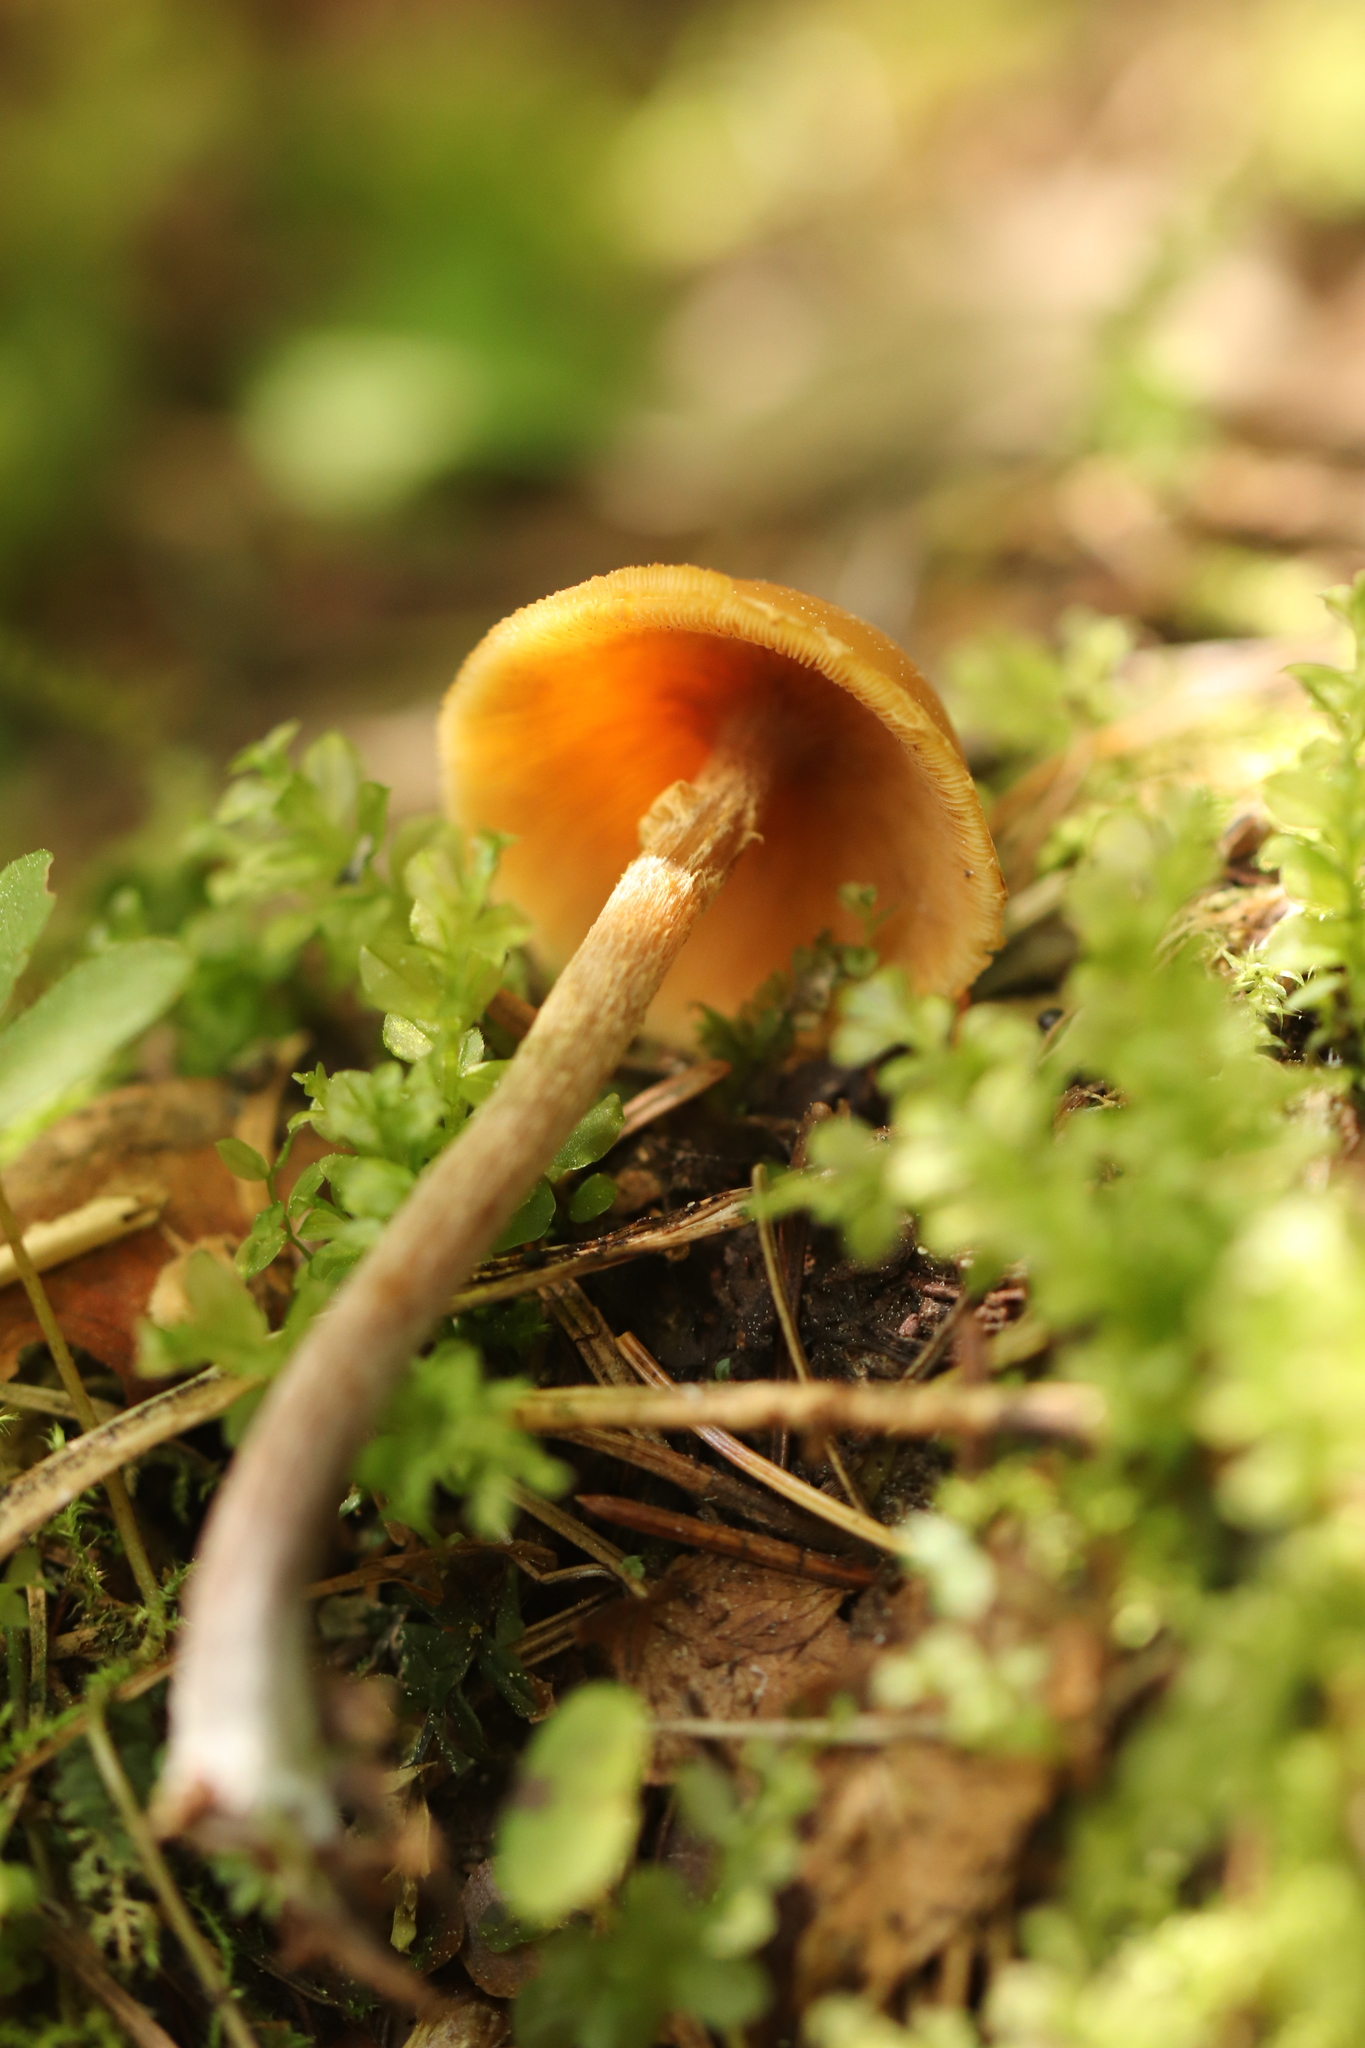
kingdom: Fungi
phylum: Basidiomycota
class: Agaricomycetes
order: Agaricales
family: Strophariaceae
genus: Pholiota
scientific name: Pholiota lignicola
